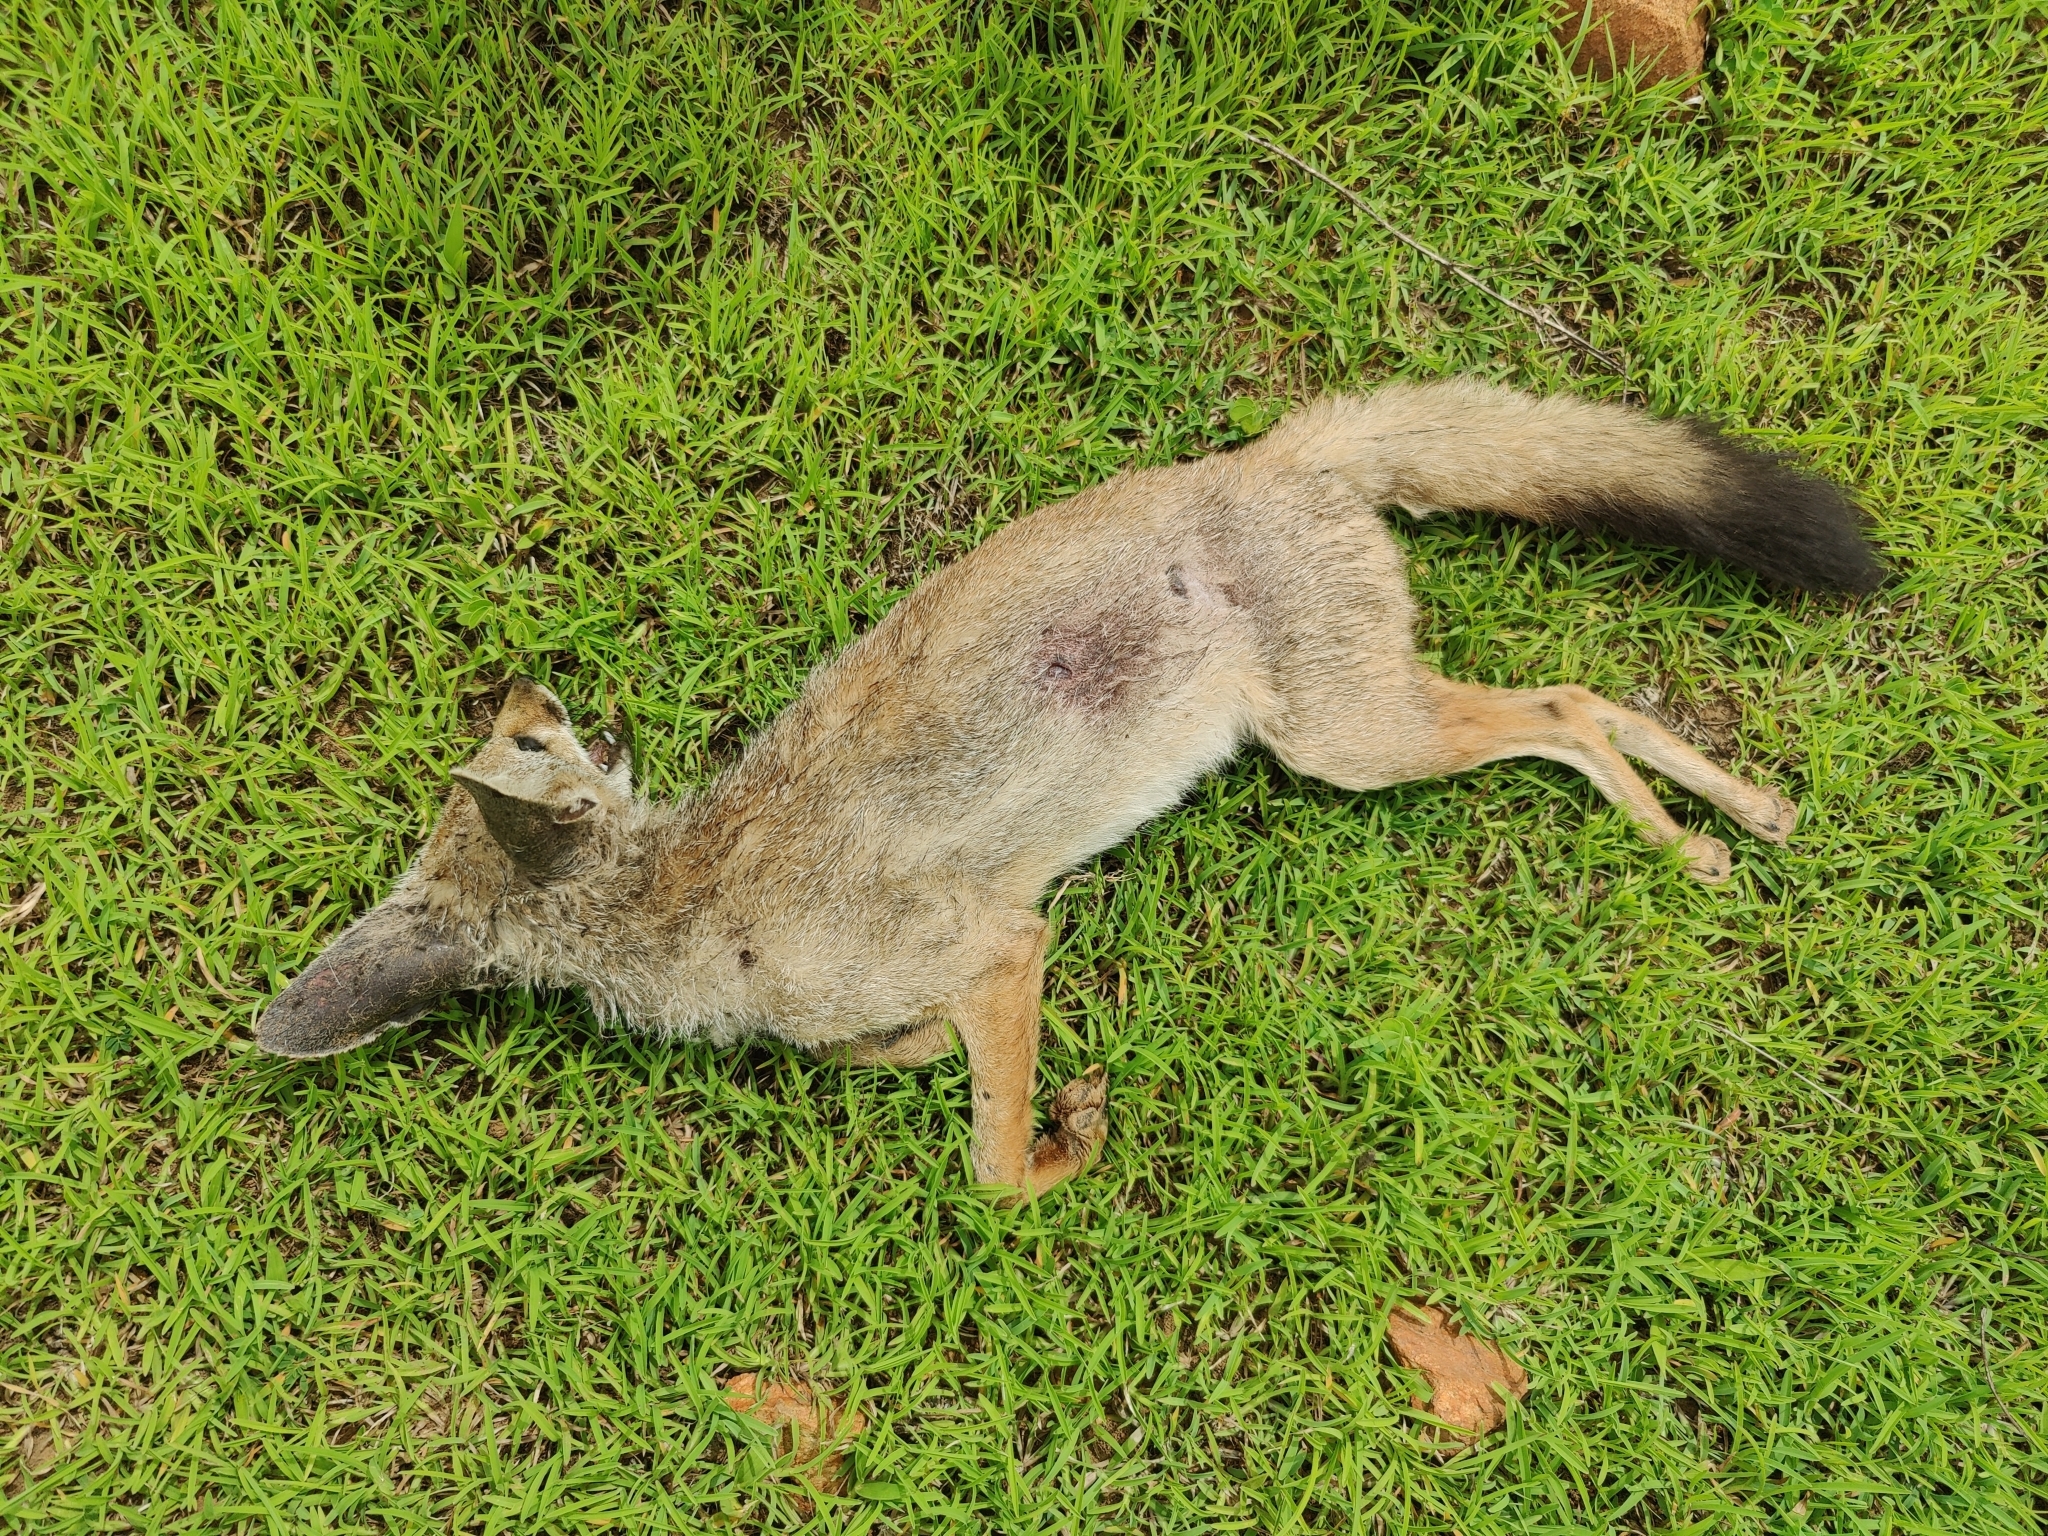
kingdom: Animalia
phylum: Chordata
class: Mammalia
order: Carnivora
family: Canidae
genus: Vulpes
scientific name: Vulpes bengalensis
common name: Bengal fox
